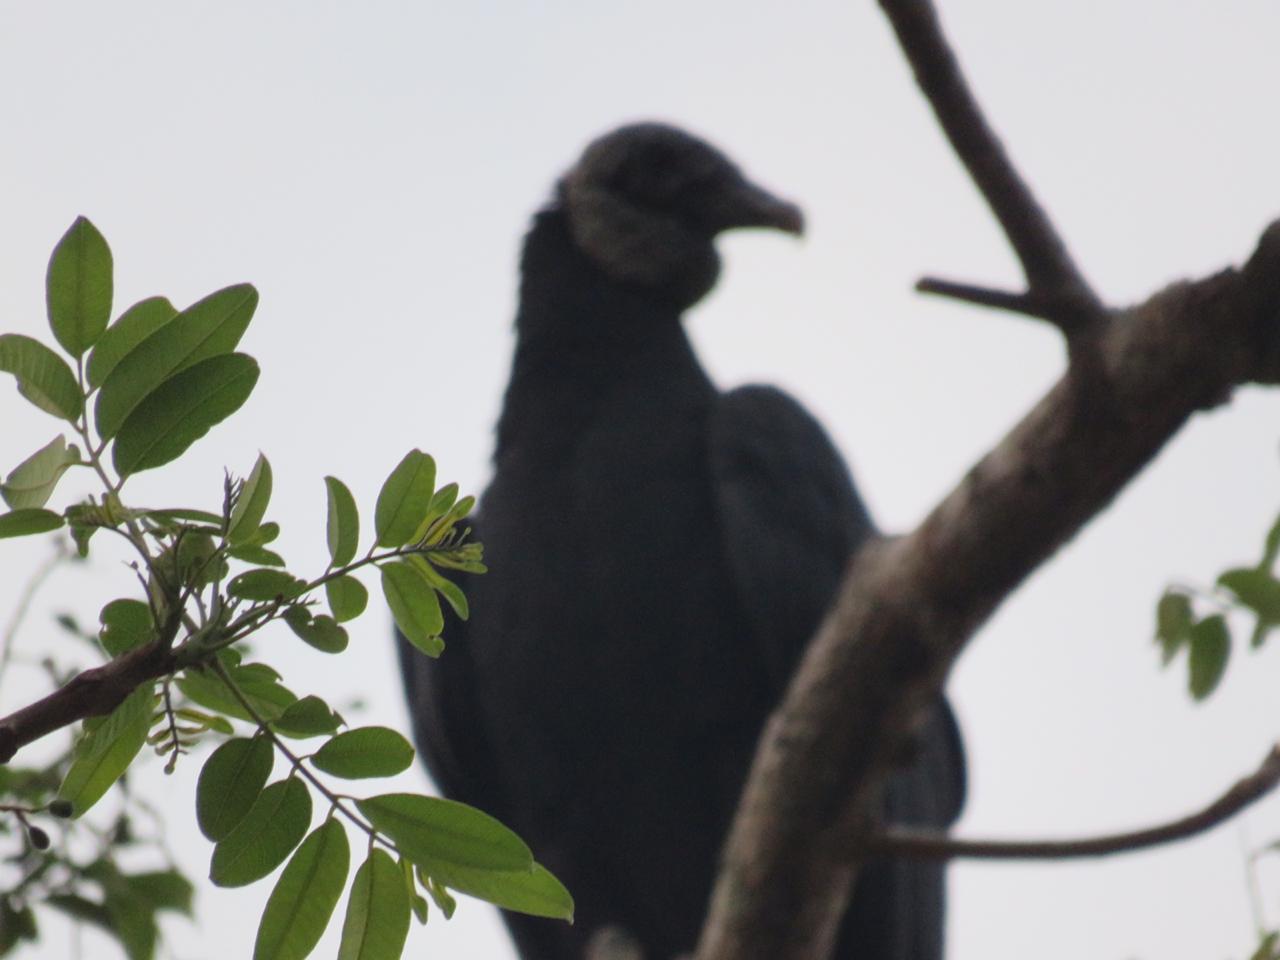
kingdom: Animalia
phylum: Chordata
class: Aves
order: Accipitriformes
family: Cathartidae
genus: Coragyps
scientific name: Coragyps atratus
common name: Black vulture
